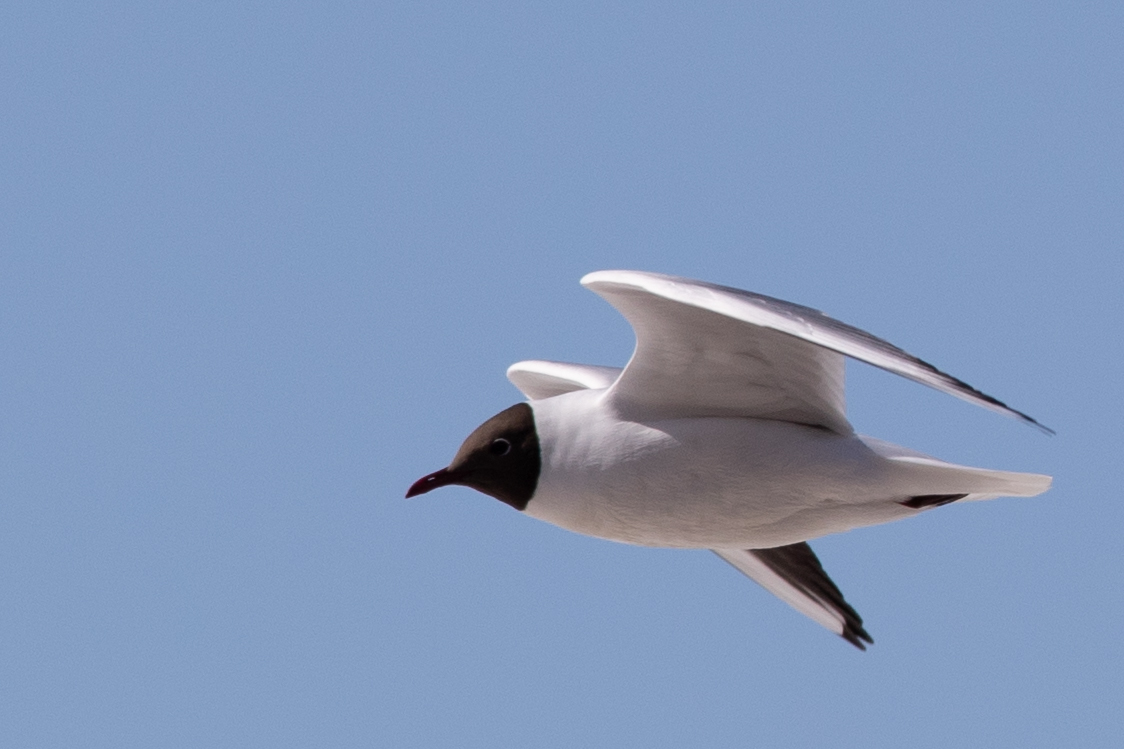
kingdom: Animalia
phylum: Chordata
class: Aves
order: Charadriiformes
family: Laridae
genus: Chroicocephalus
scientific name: Chroicocephalus ridibundus
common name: Black-headed gull
